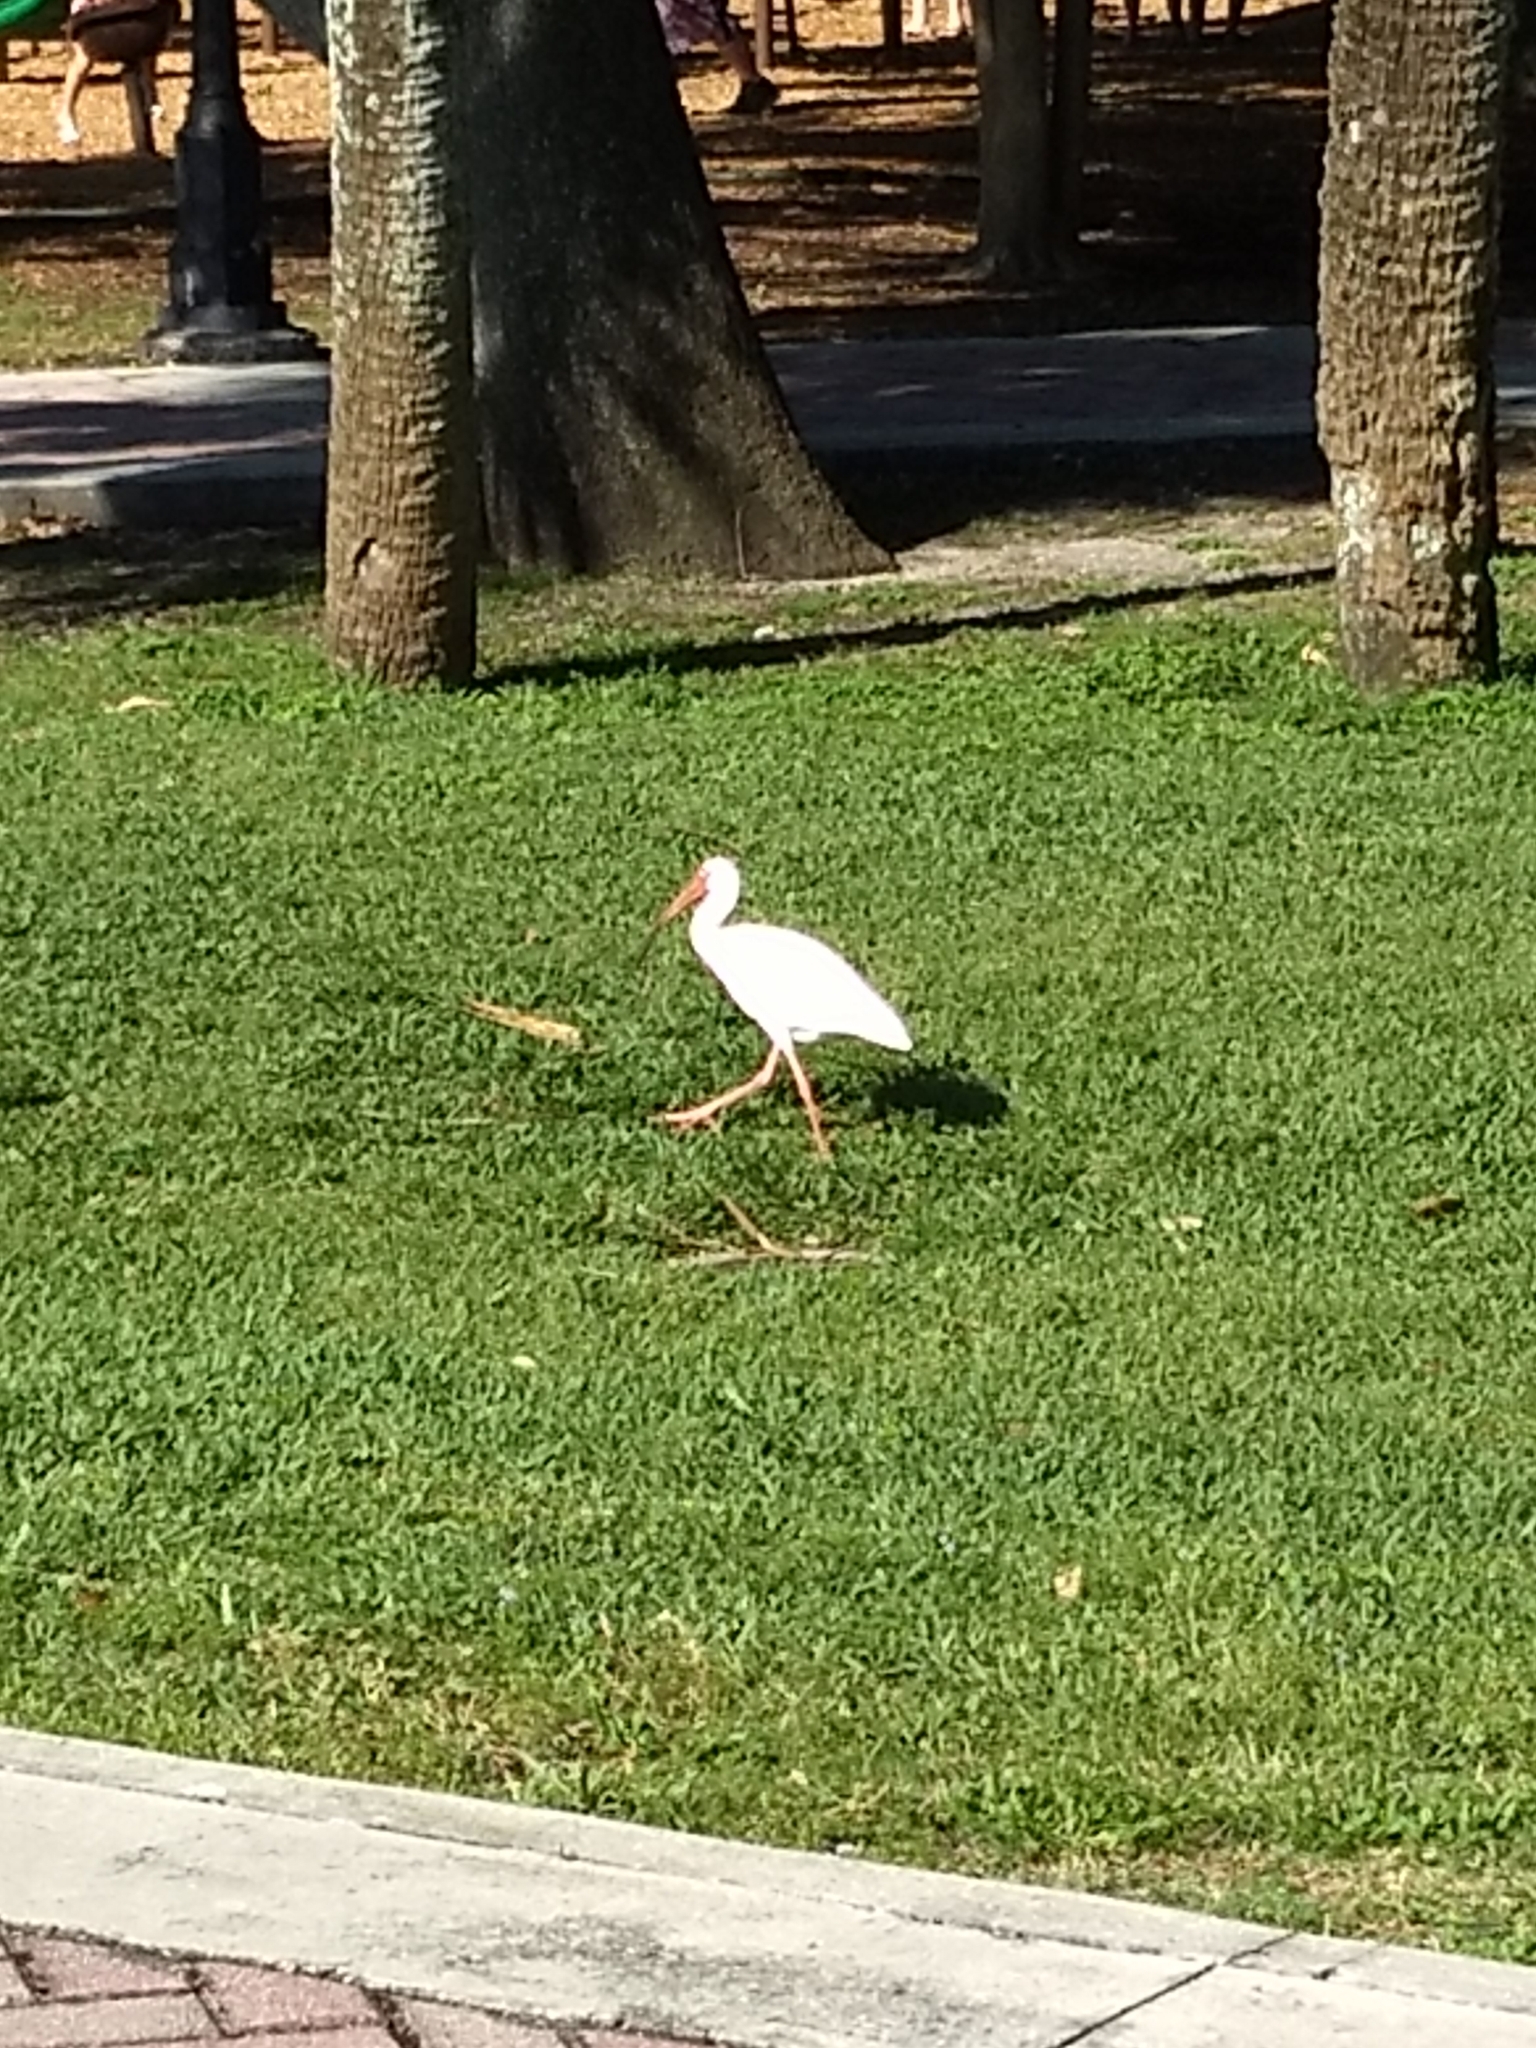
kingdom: Animalia
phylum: Chordata
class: Aves
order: Pelecaniformes
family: Threskiornithidae
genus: Eudocimus
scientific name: Eudocimus albus
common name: White ibis
